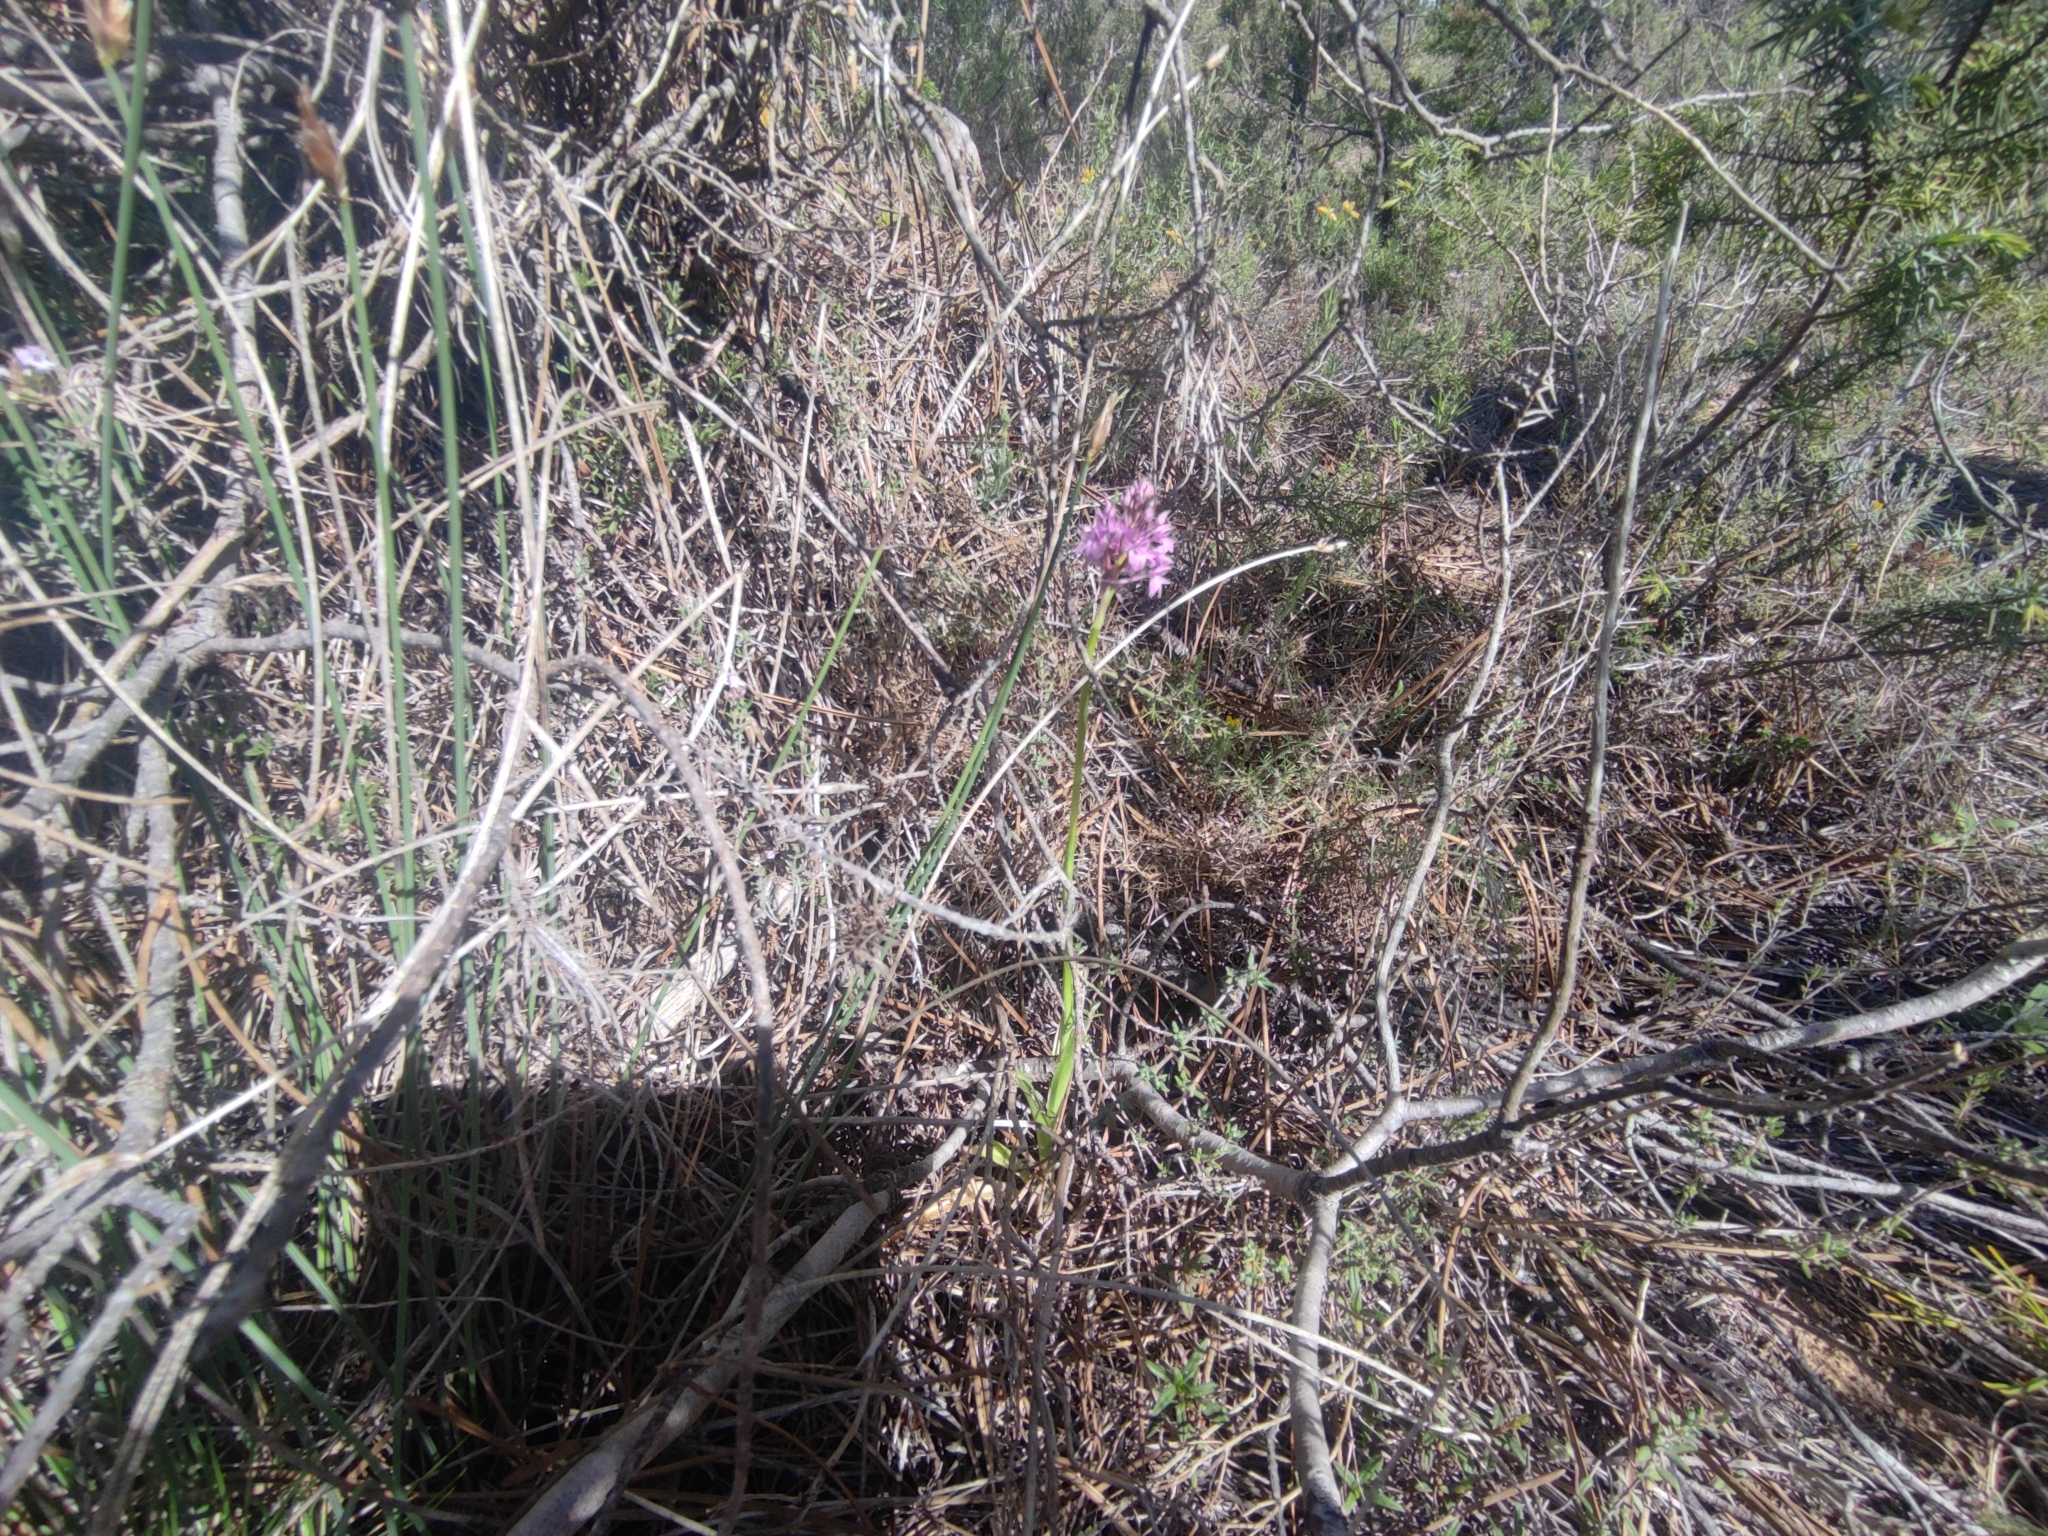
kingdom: Plantae
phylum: Tracheophyta
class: Liliopsida
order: Asparagales
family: Orchidaceae
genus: Anacamptis
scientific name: Anacamptis pyramidalis
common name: Pyramidal orchid
